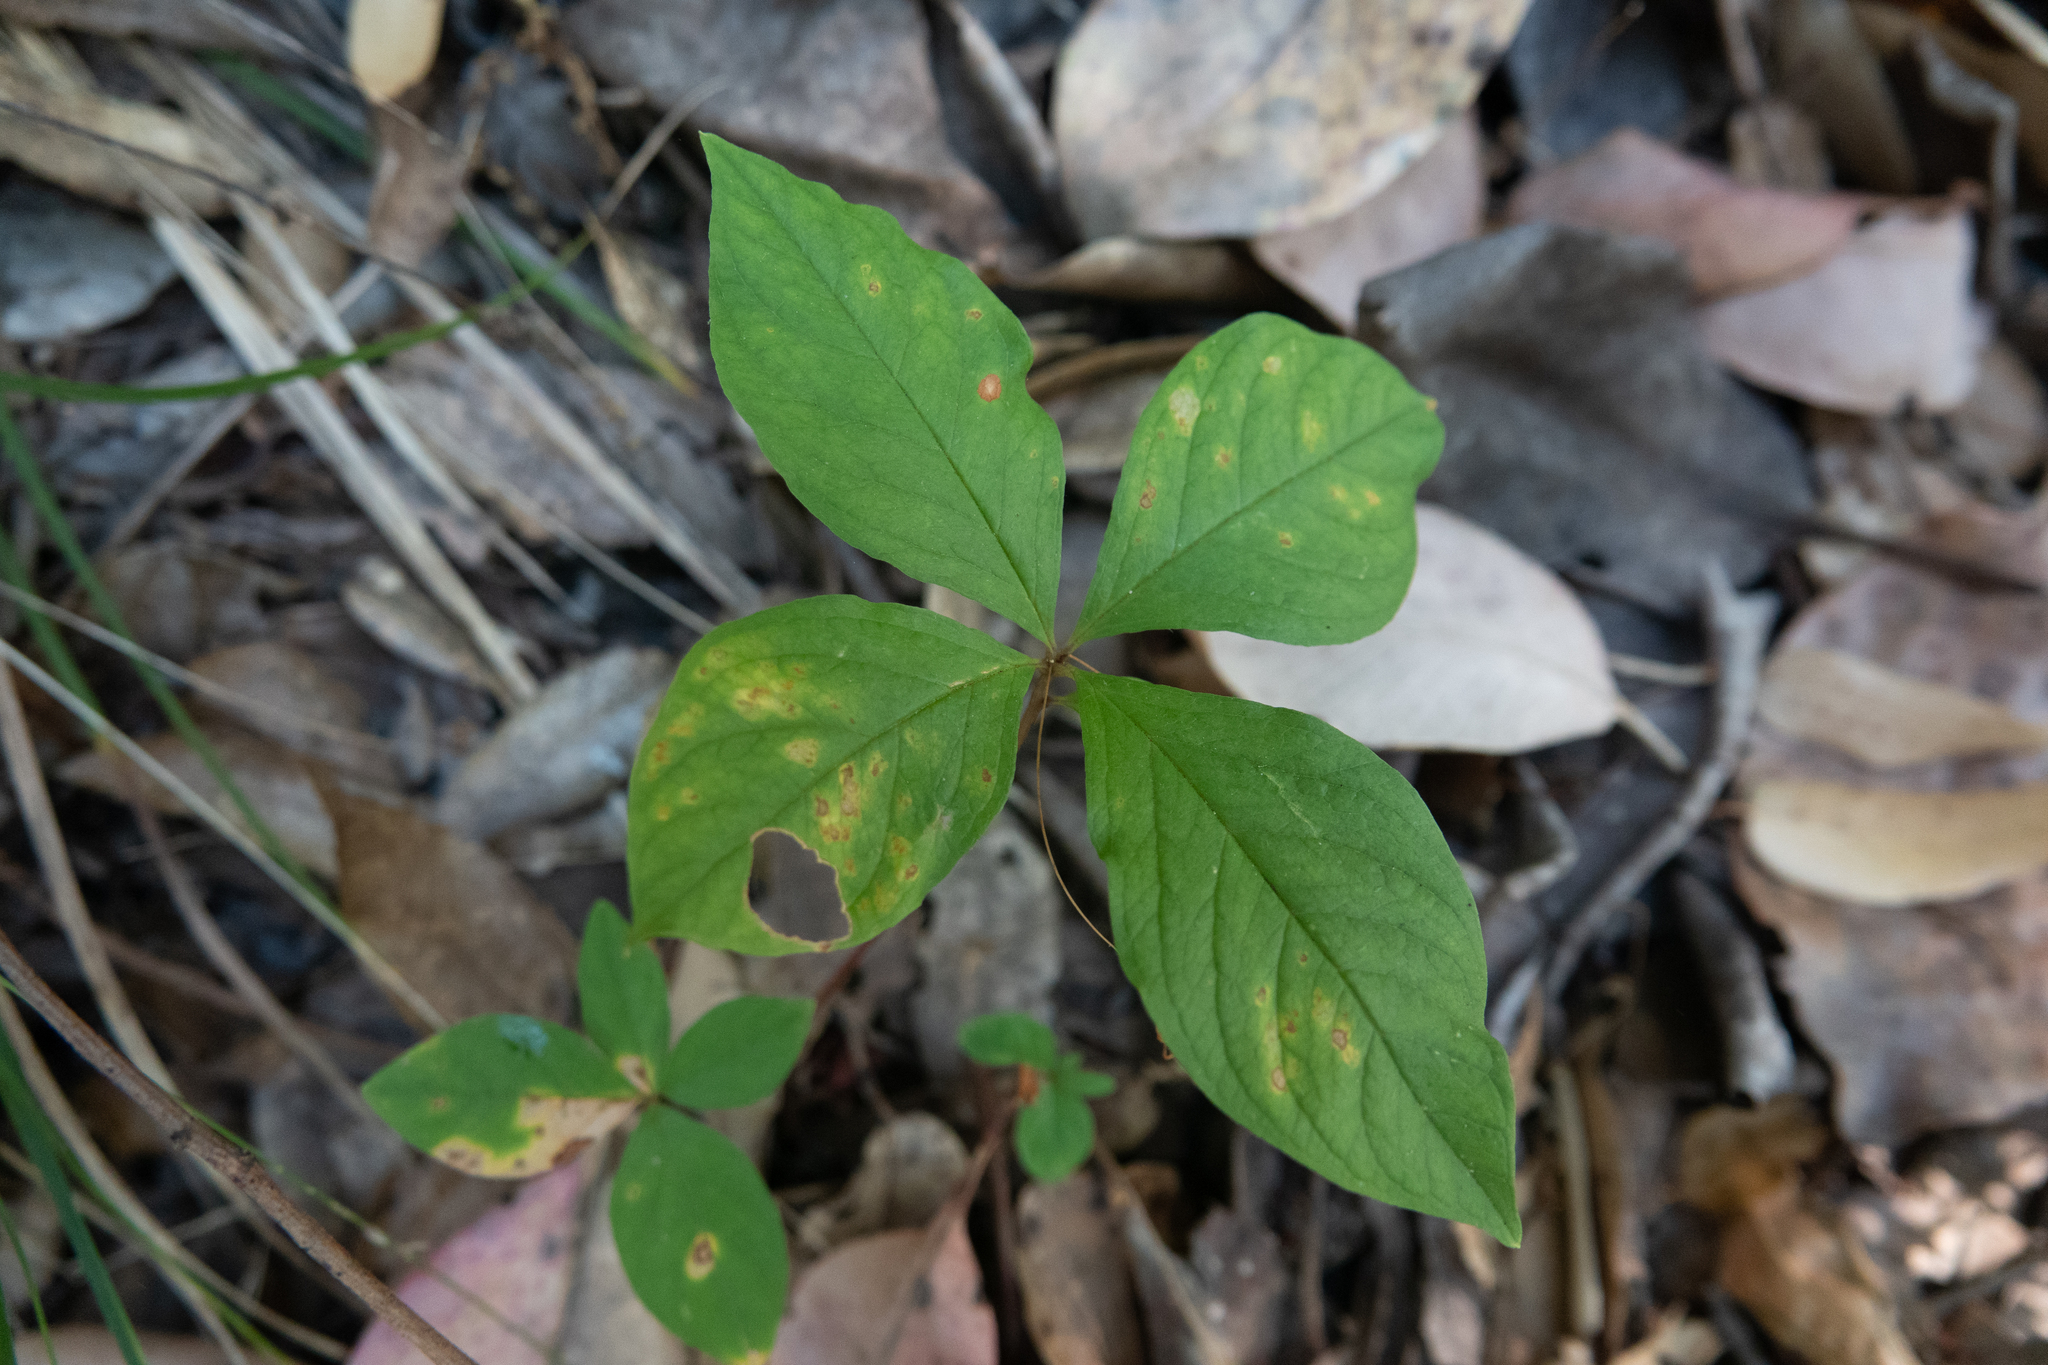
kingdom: Plantae
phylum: Tracheophyta
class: Magnoliopsida
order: Ericales
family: Primulaceae
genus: Lysimachia
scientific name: Lysimachia latifolia
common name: Pacific starflower
